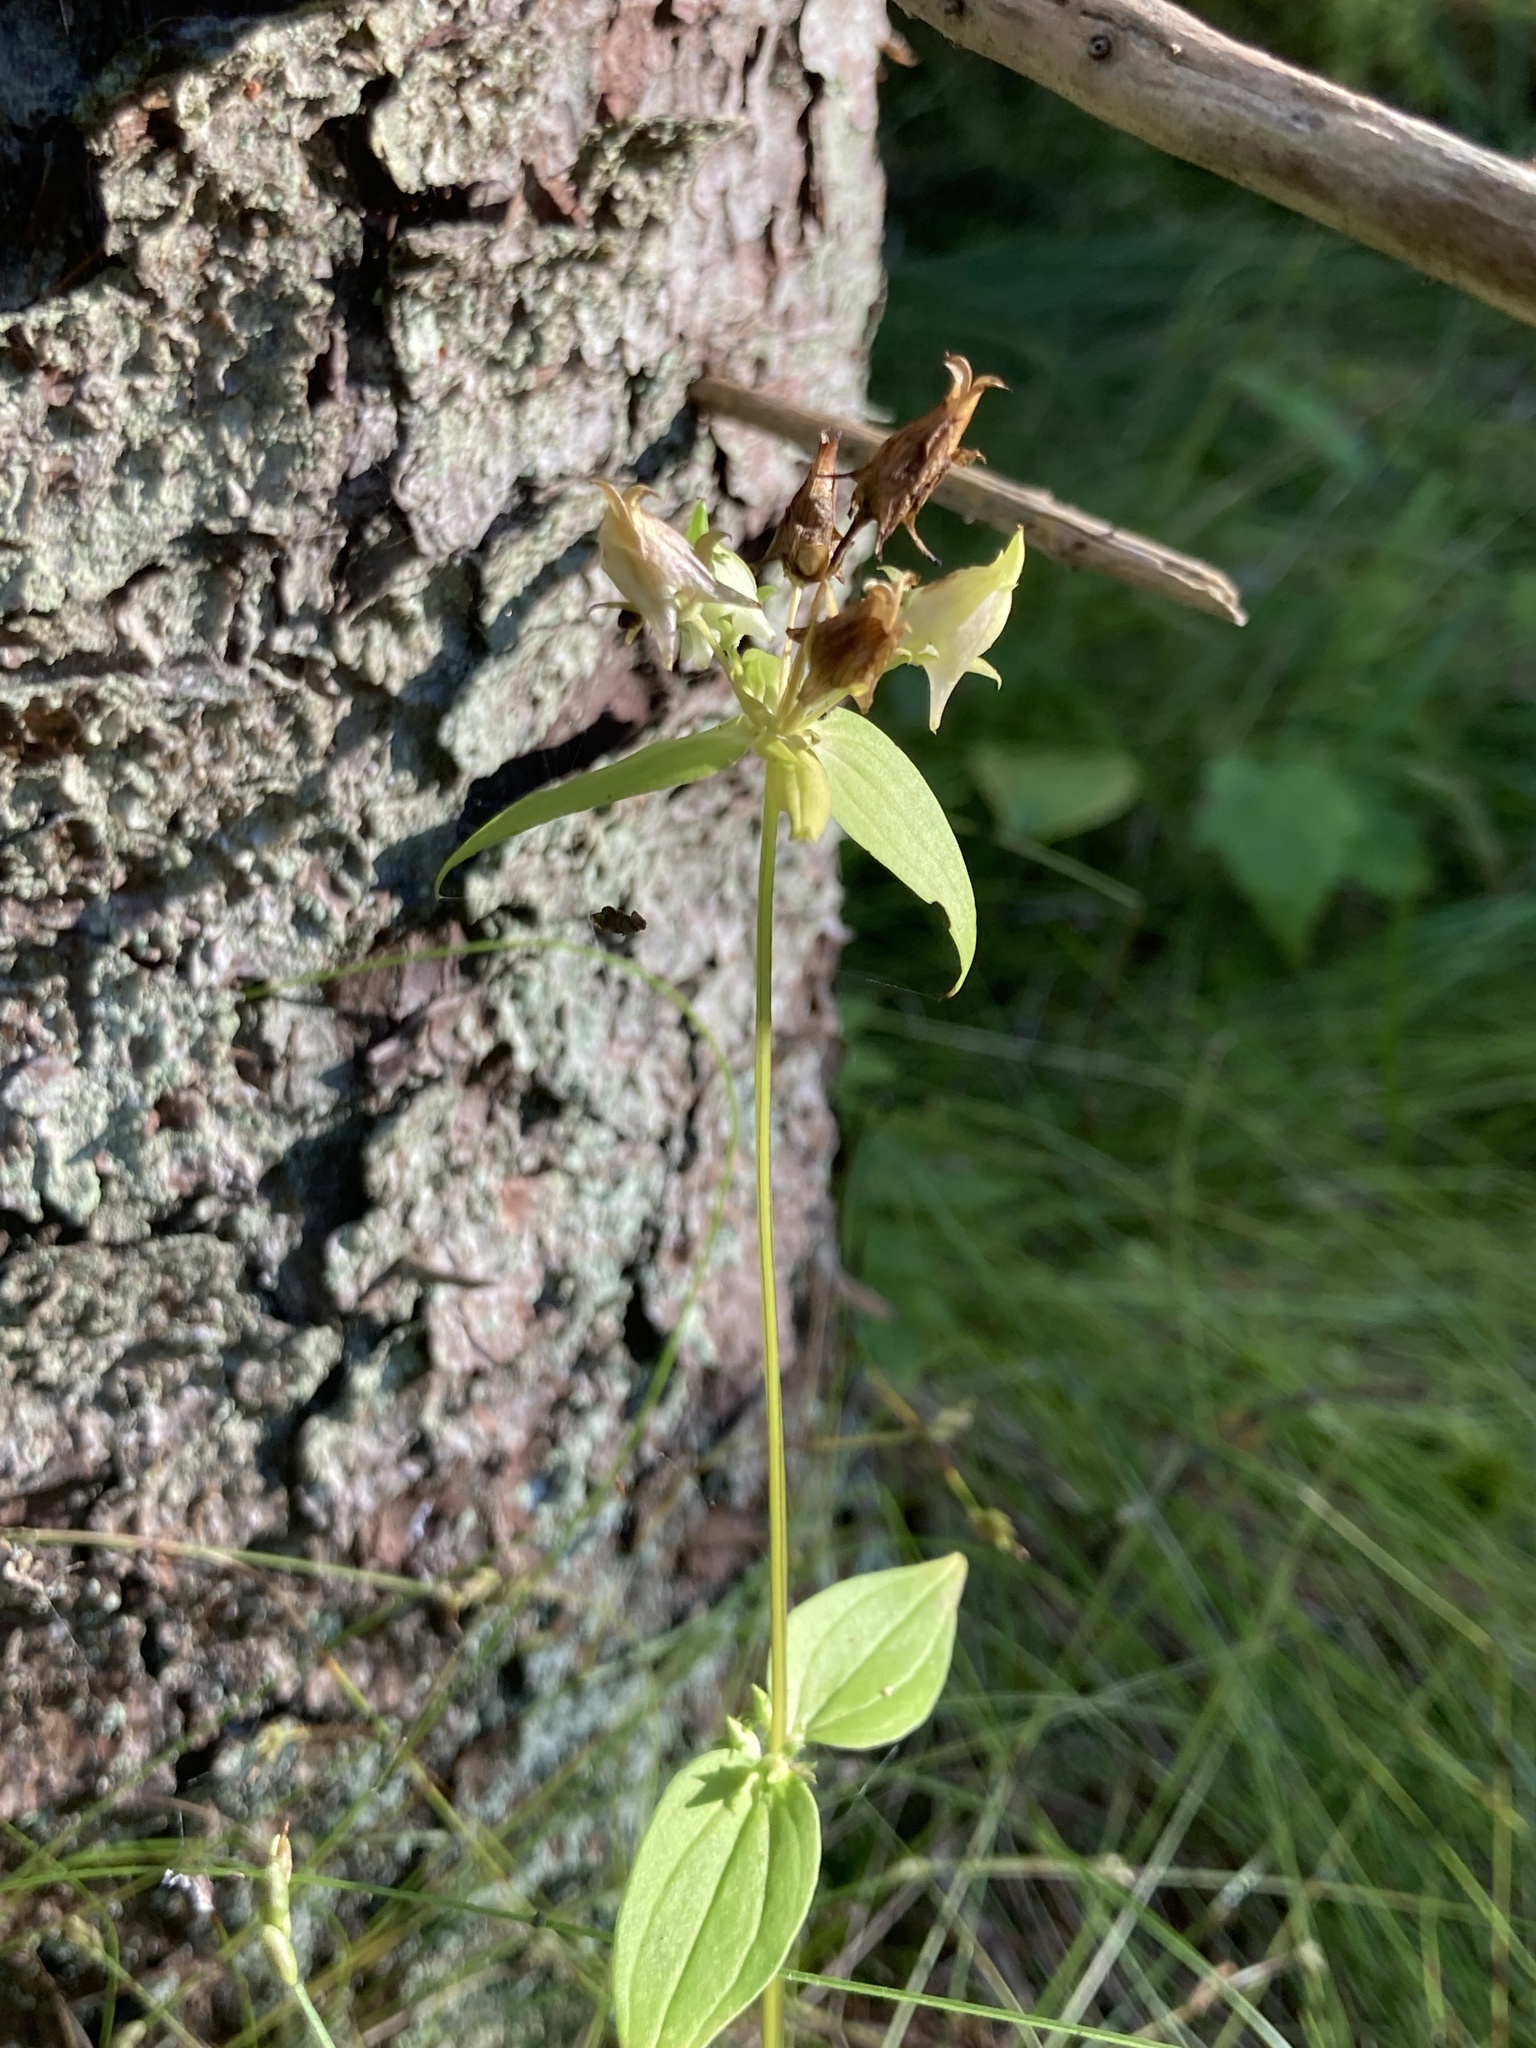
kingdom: Plantae
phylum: Tracheophyta
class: Magnoliopsida
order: Gentianales
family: Gentianaceae
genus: Halenia
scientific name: Halenia deflexa
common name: American spurred gentian
